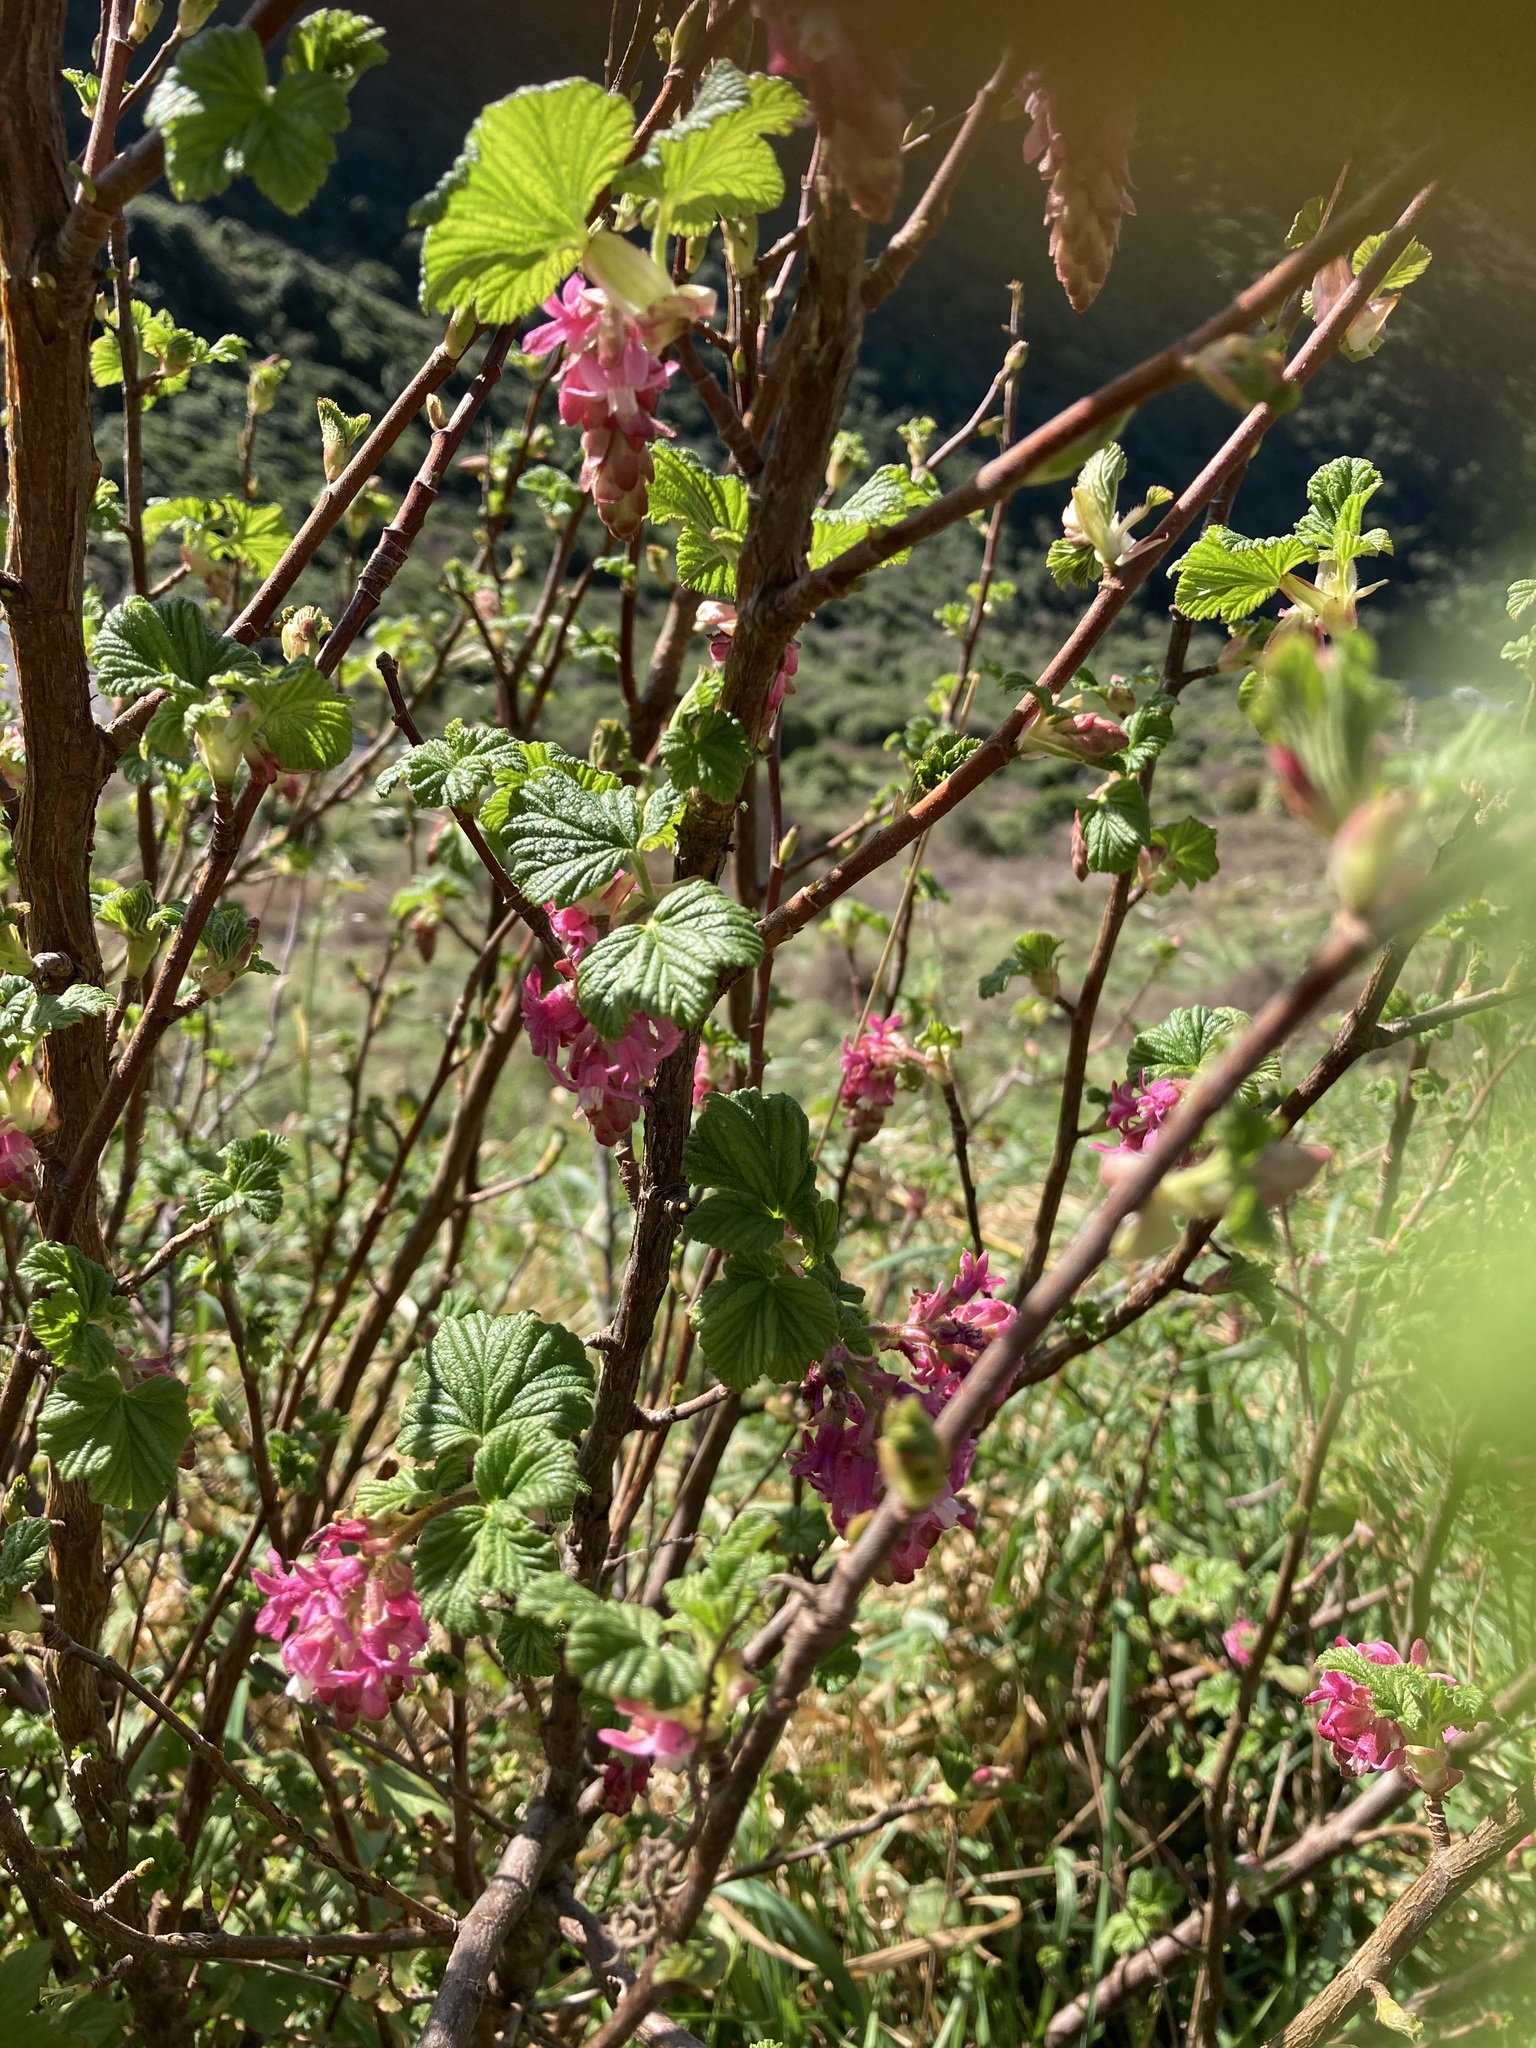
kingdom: Plantae
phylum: Tracheophyta
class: Magnoliopsida
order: Saxifragales
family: Grossulariaceae
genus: Ribes
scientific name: Ribes sanguineum
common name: Flowering currant
